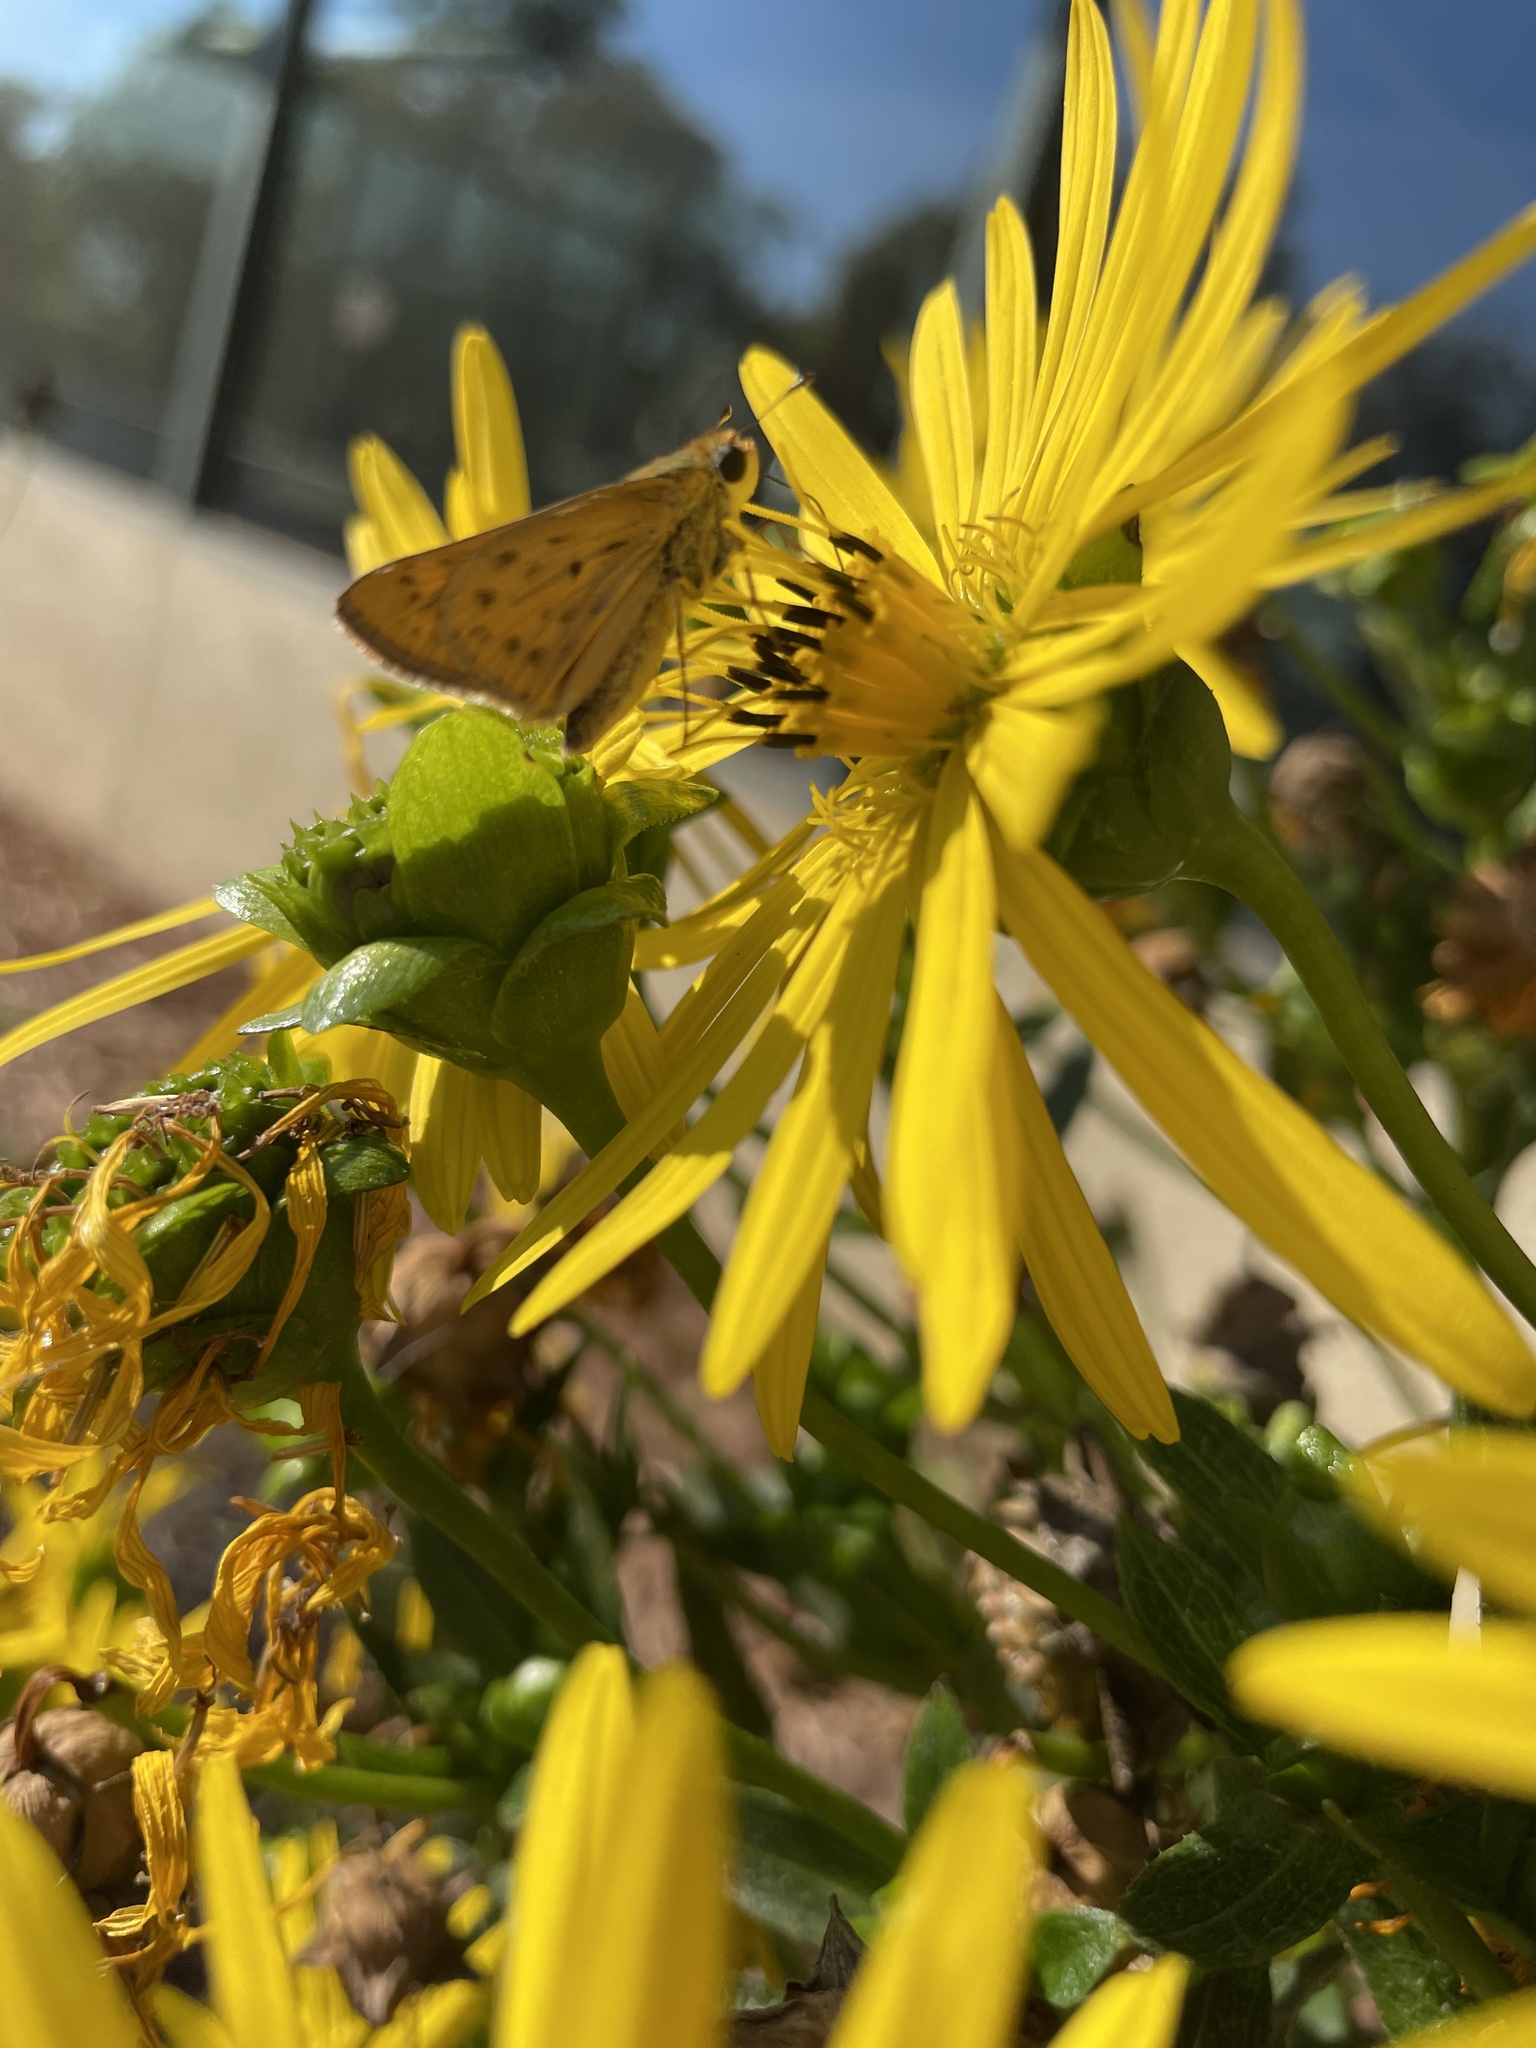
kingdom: Animalia
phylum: Arthropoda
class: Insecta
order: Lepidoptera
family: Hesperiidae
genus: Hylephila
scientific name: Hylephila phyleus
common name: Fiery skipper
